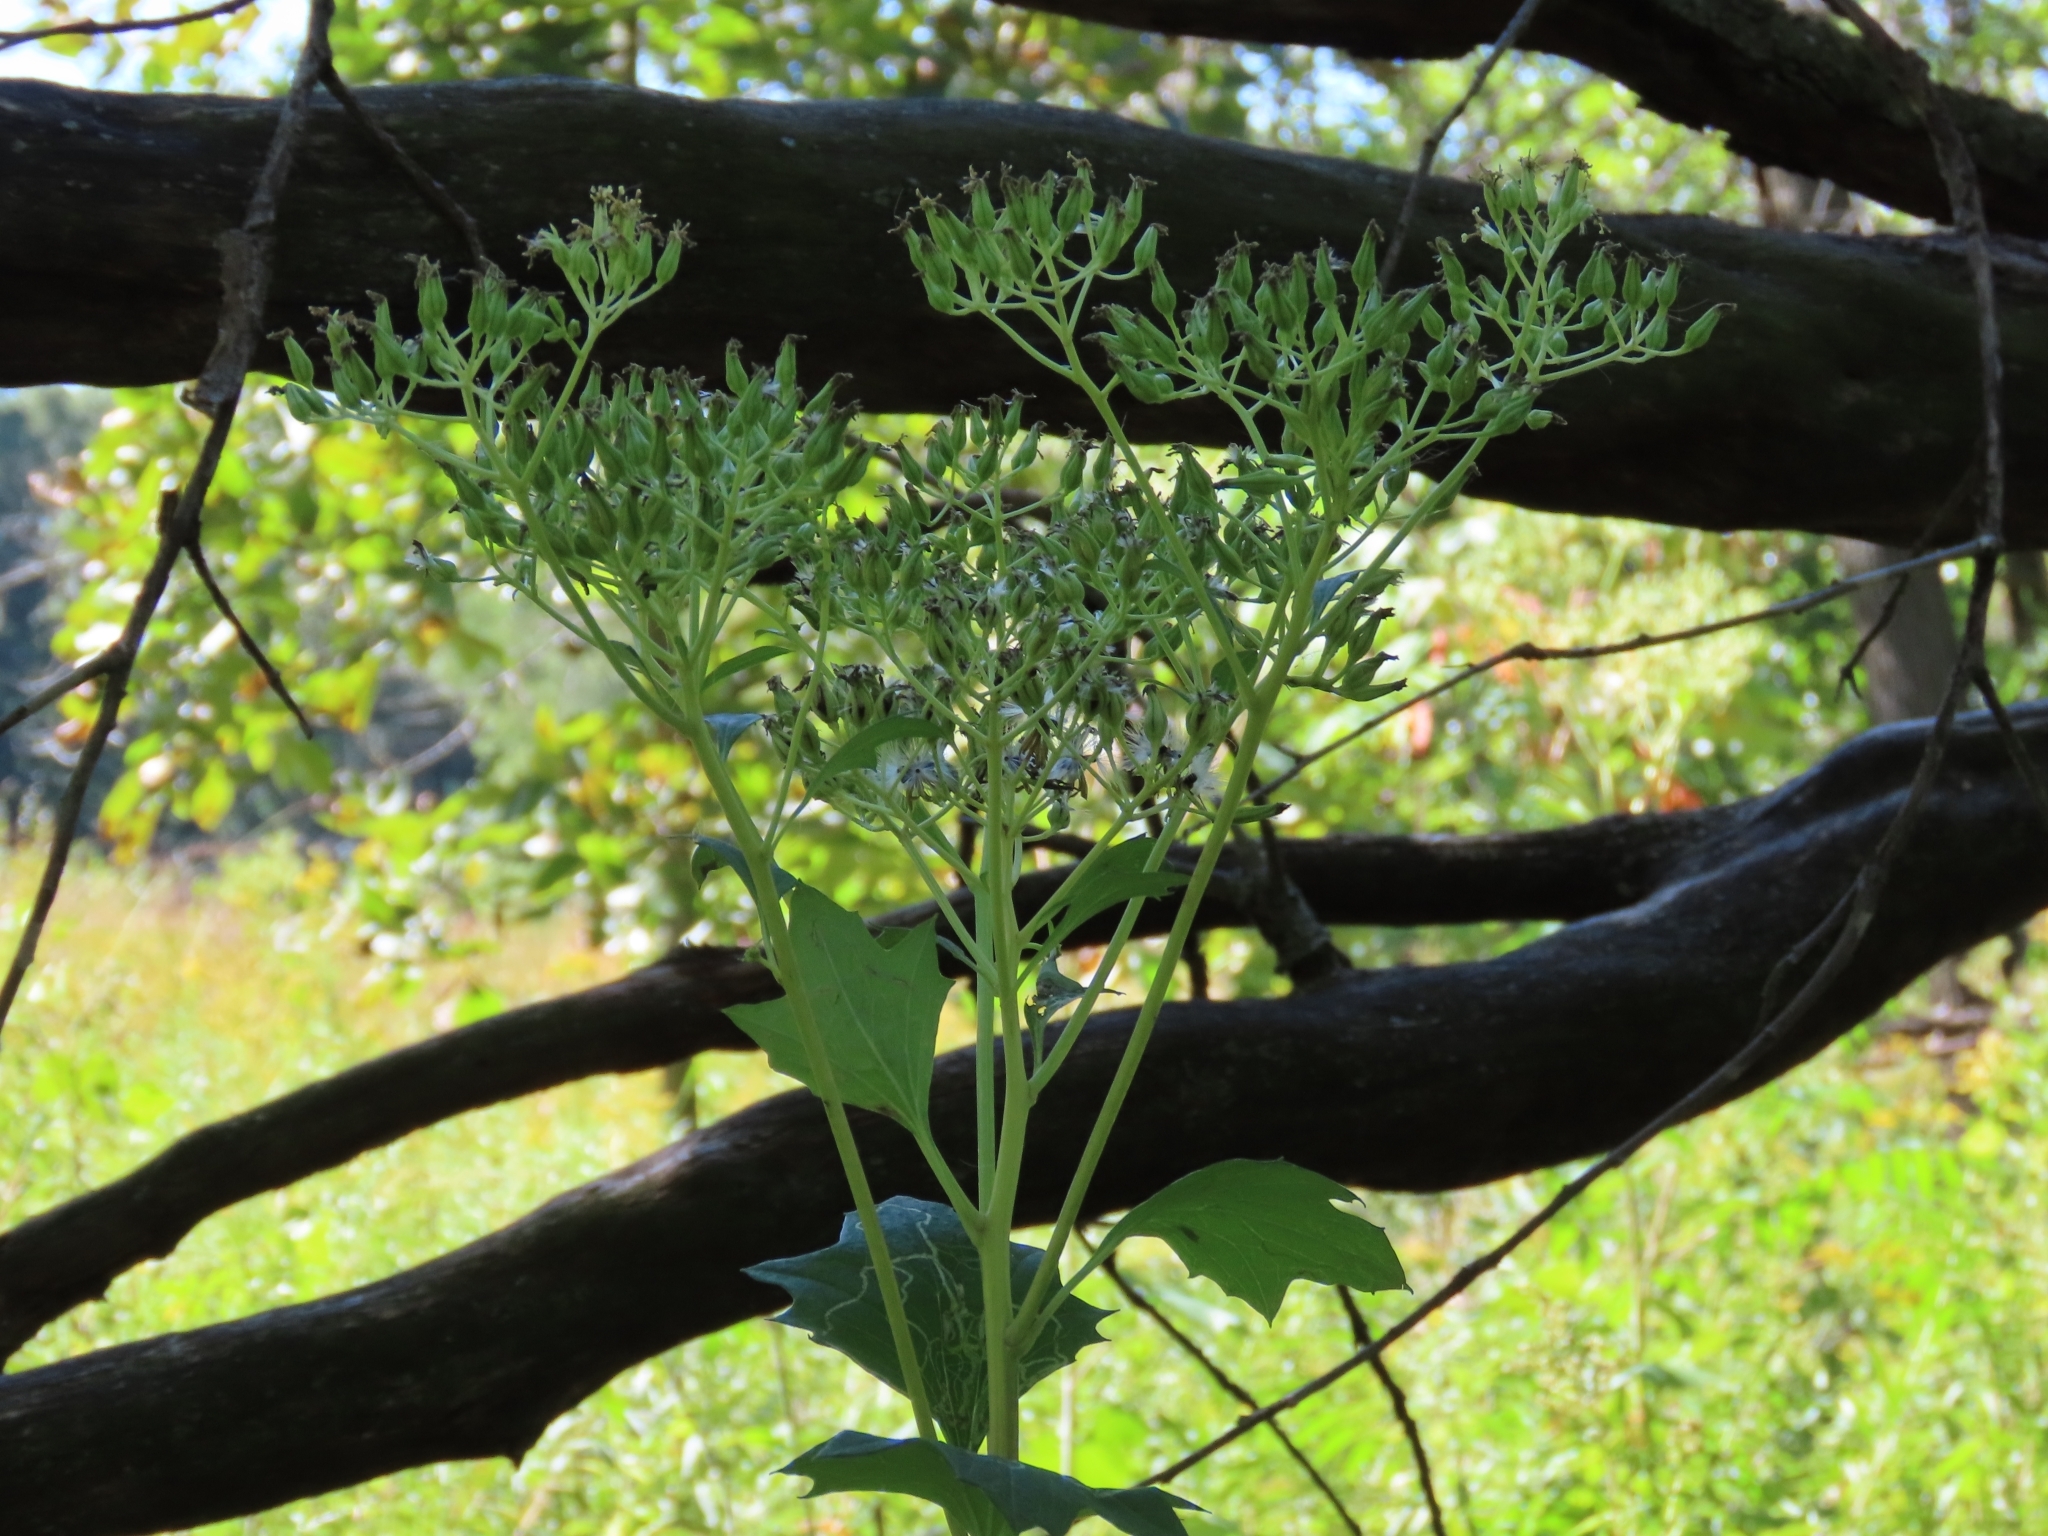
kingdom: Plantae
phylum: Tracheophyta
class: Magnoliopsida
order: Asterales
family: Asteraceae
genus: Arnoglossum
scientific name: Arnoglossum atriplicifolium
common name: Pale indian-plantain
